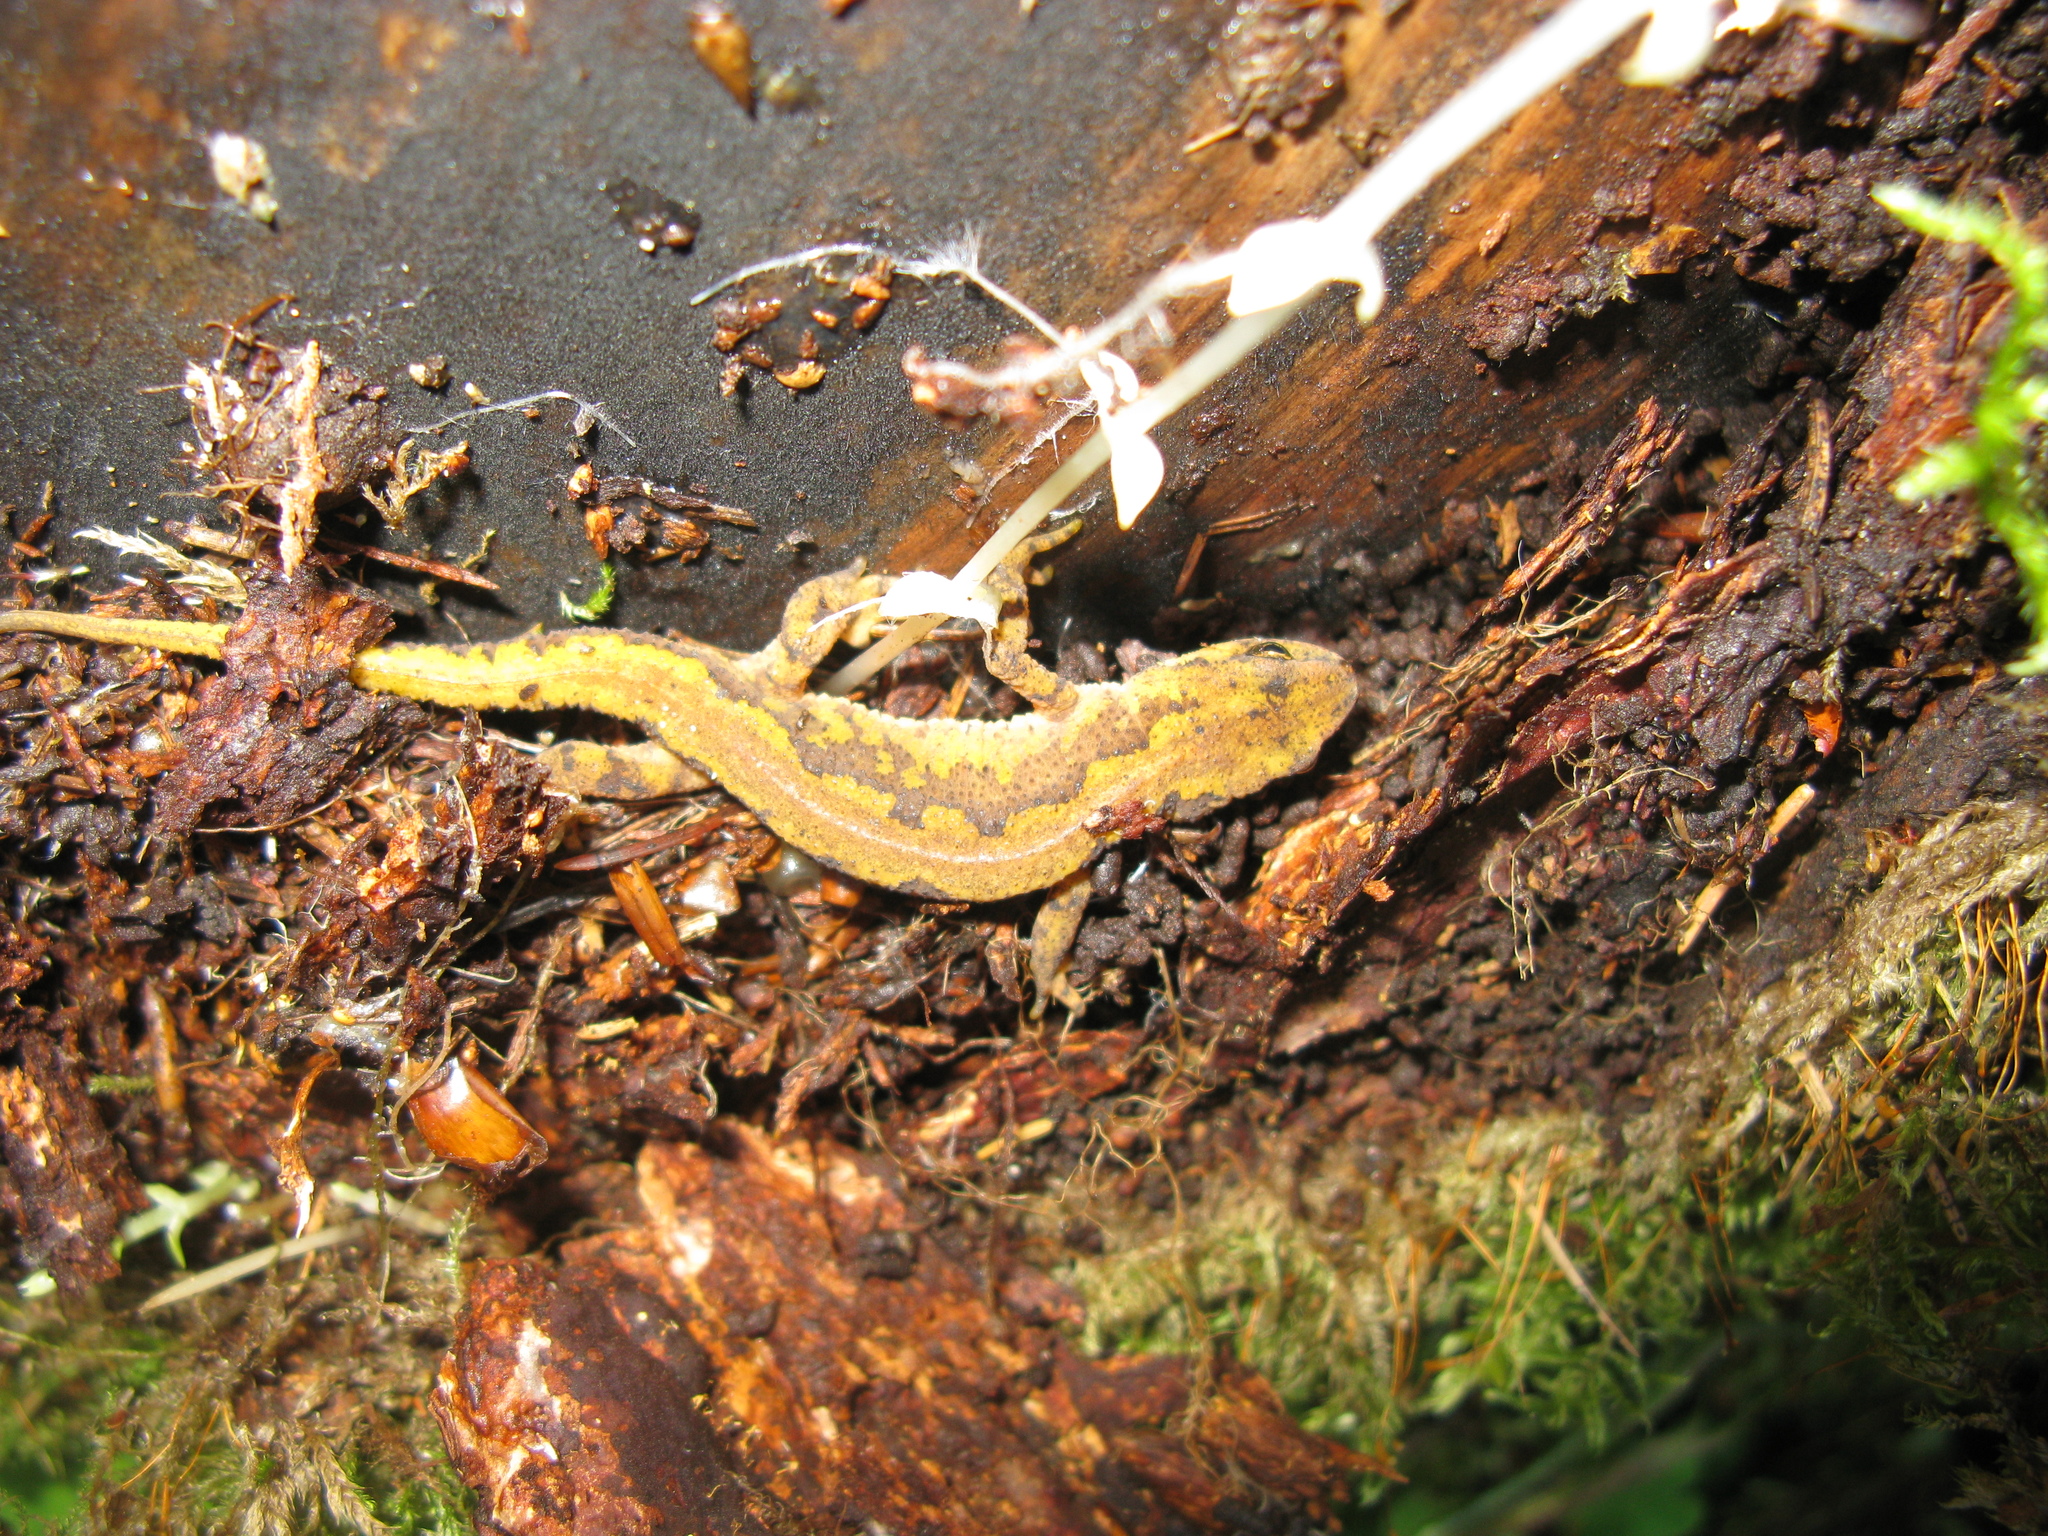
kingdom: Animalia
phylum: Chordata
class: Amphibia
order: Caudata
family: Salamandridae
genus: Lissotriton
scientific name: Lissotriton montandoni
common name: Carpathian newt
